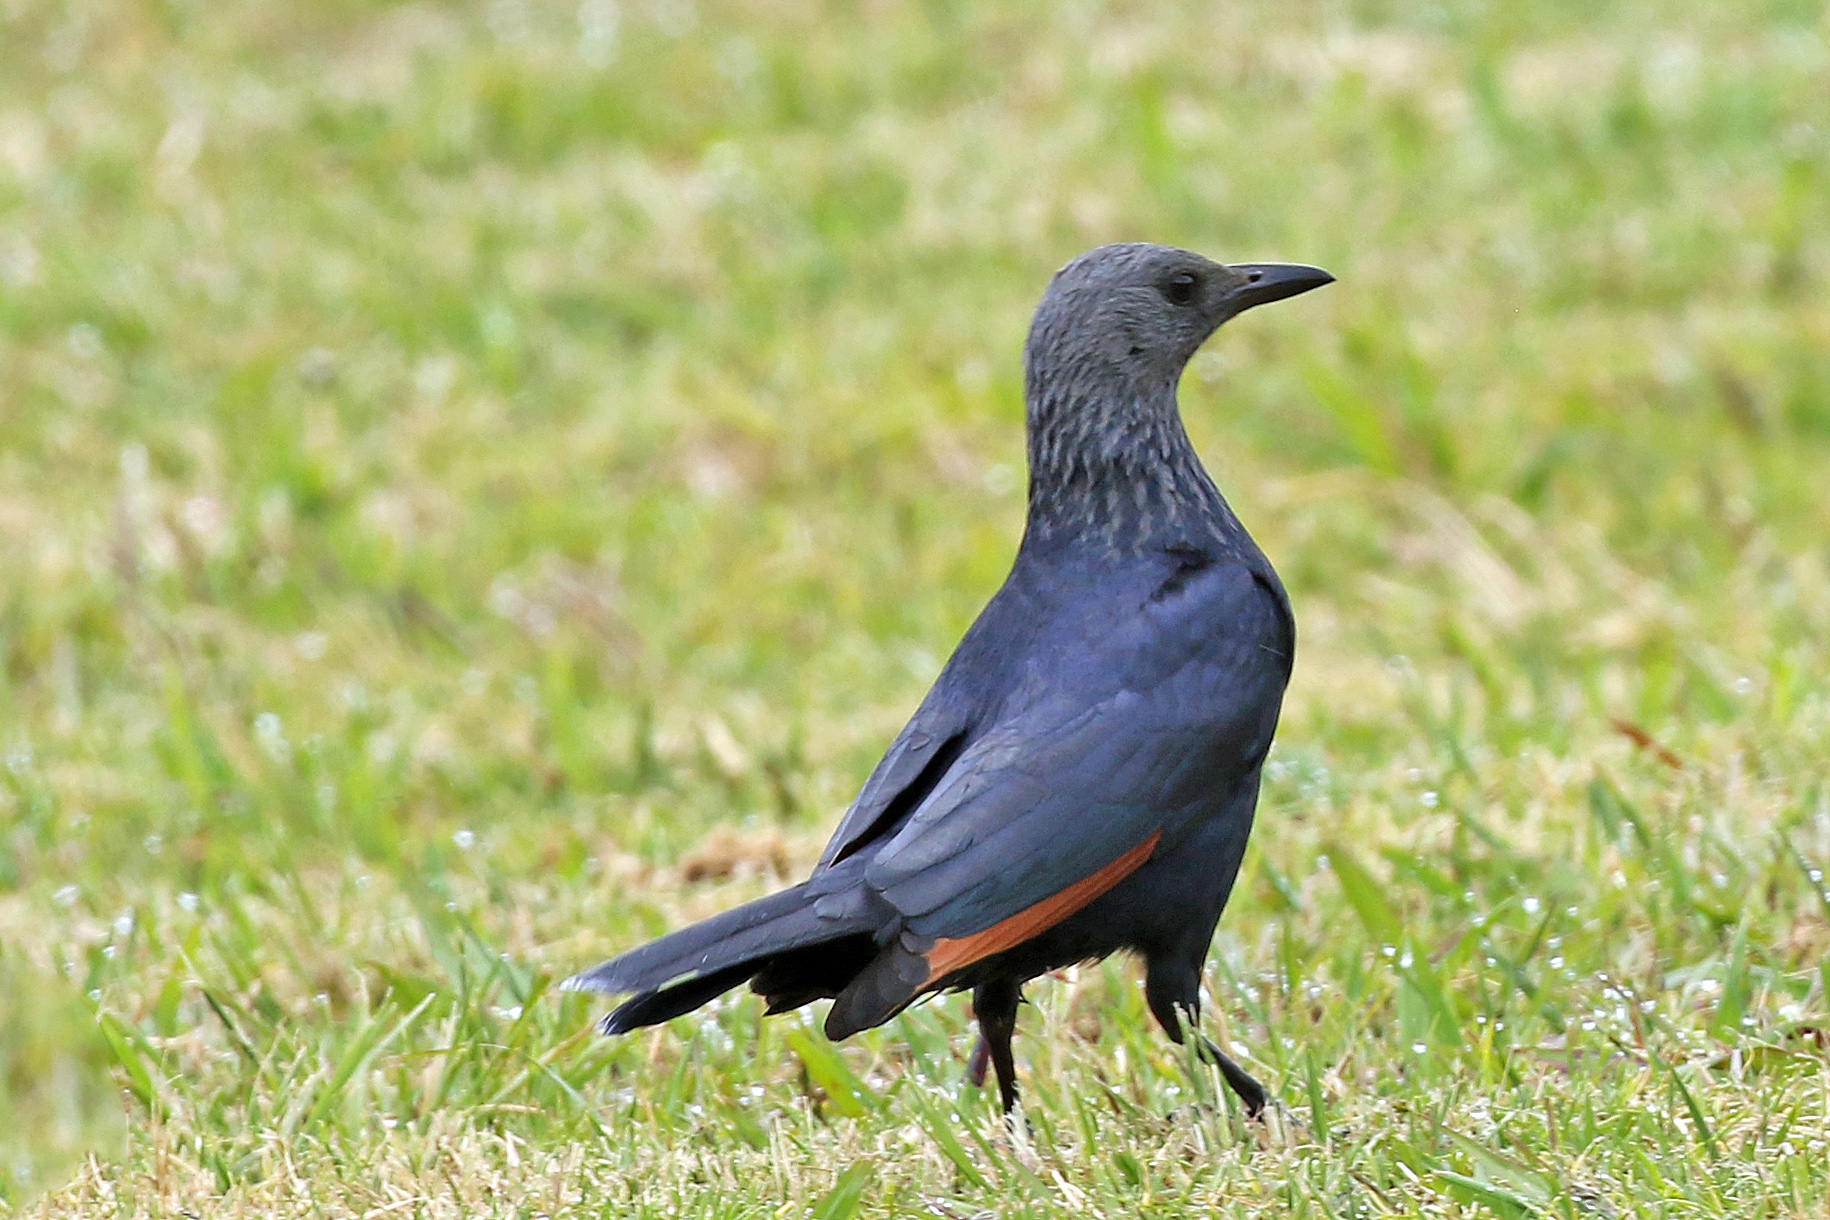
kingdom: Animalia
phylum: Chordata
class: Aves
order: Passeriformes
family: Sturnidae
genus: Onychognathus
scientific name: Onychognathus morio
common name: Red-winged starling
